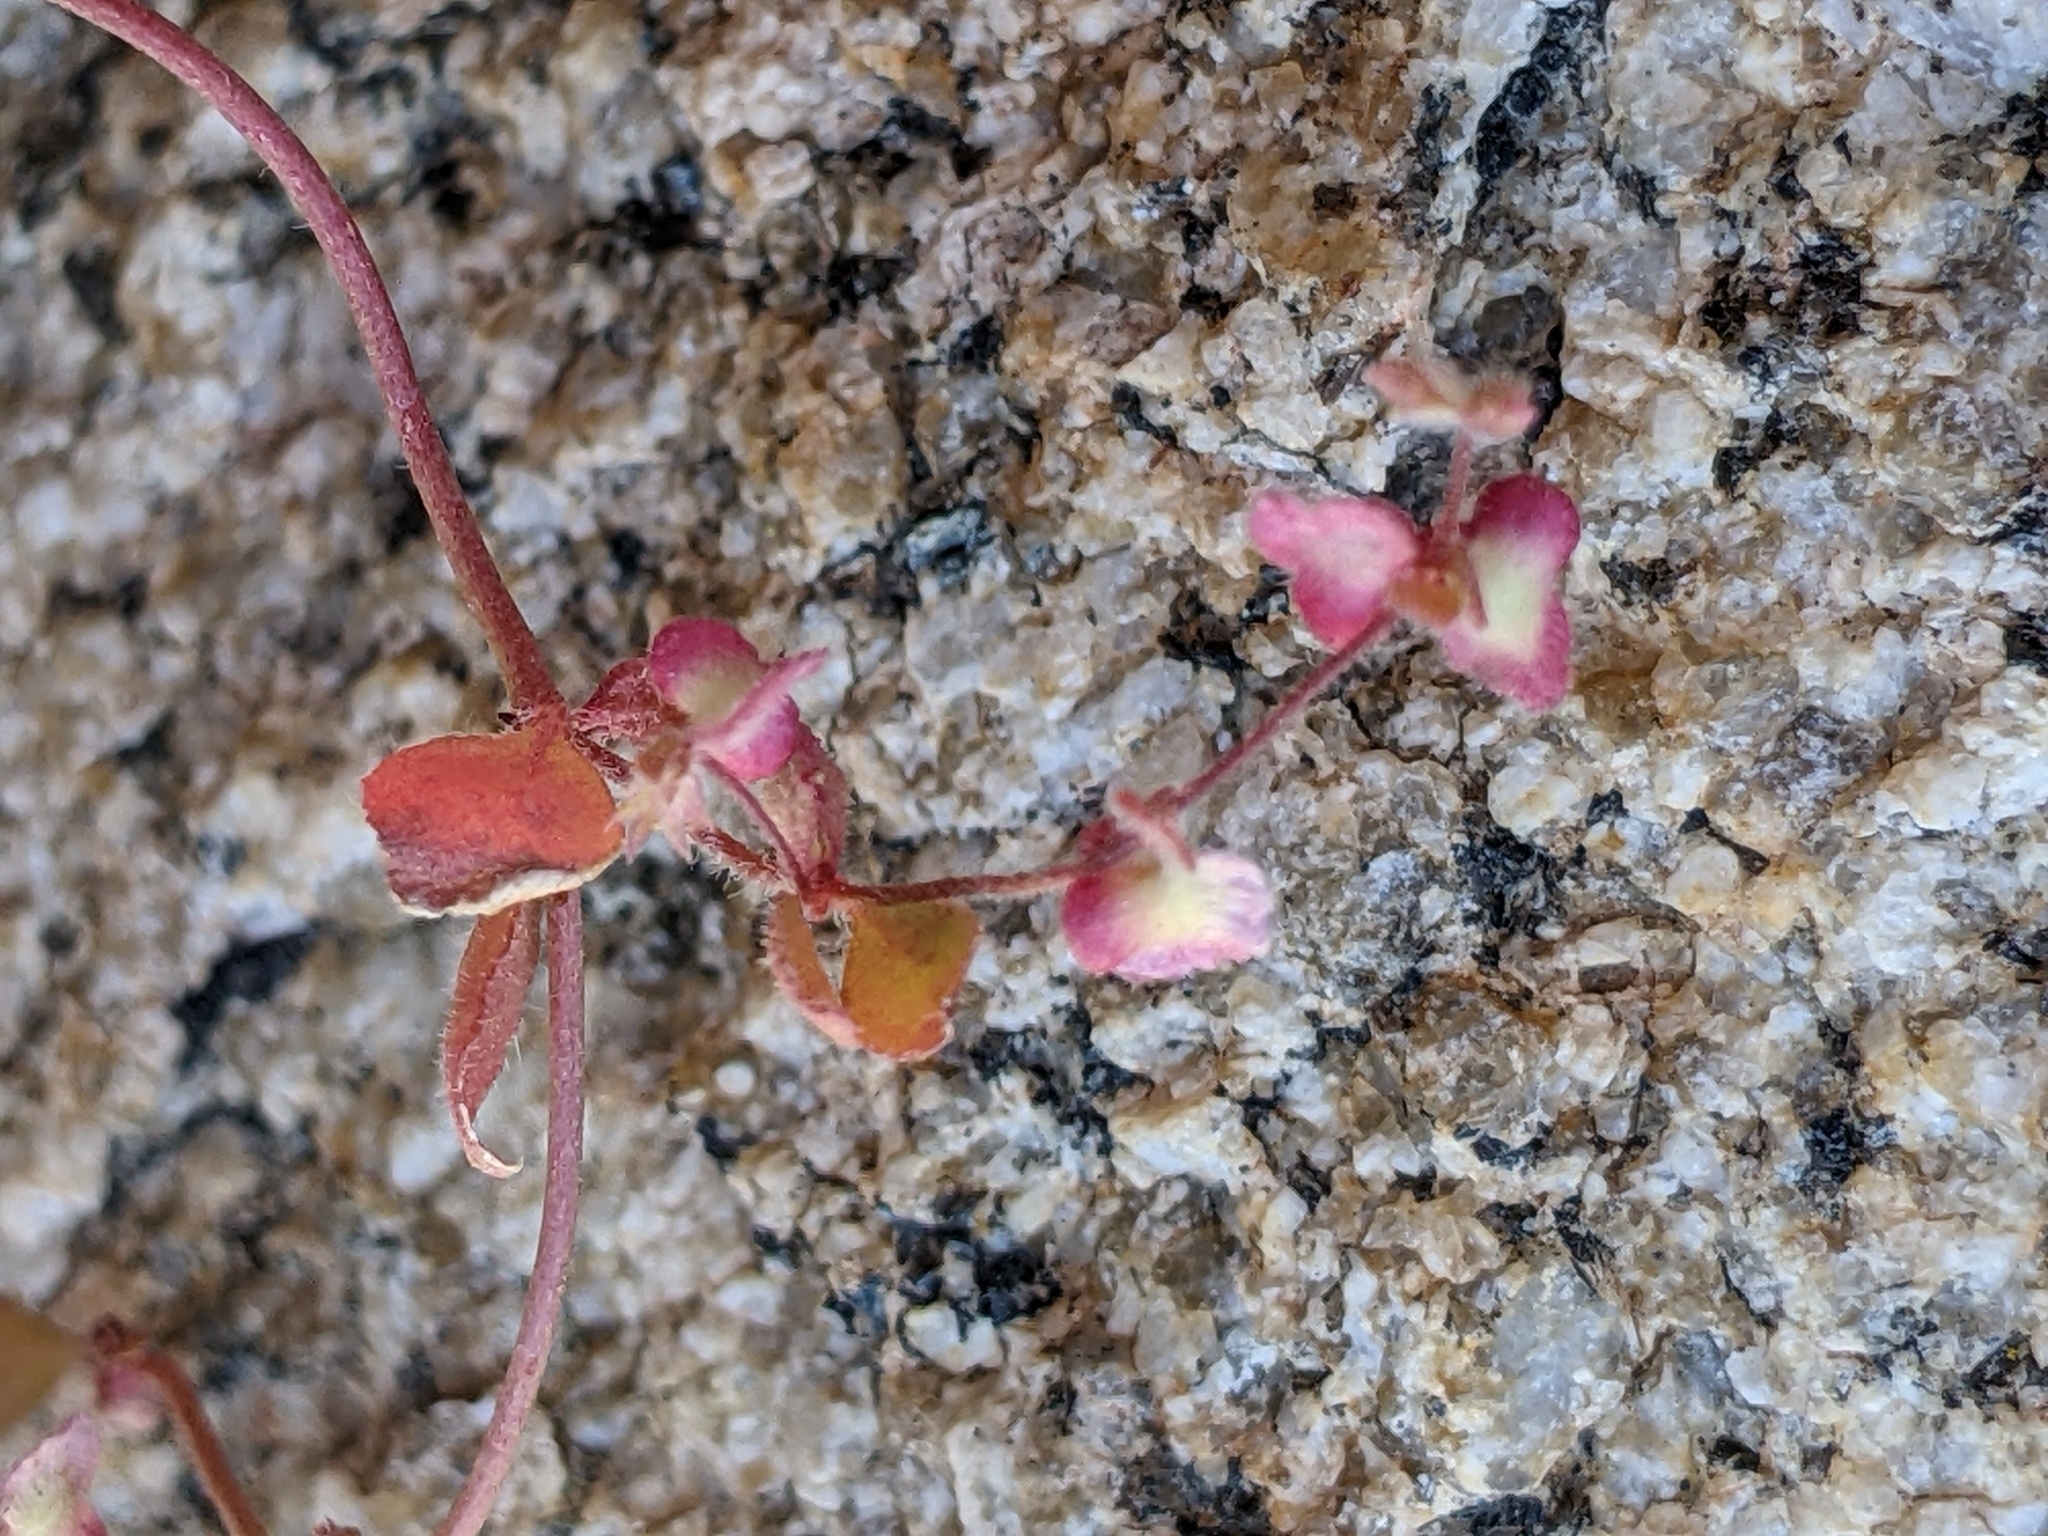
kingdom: Plantae
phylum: Tracheophyta
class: Magnoliopsida
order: Caryophyllales
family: Polygonaceae
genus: Pterostegia
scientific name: Pterostegia drymarioides
